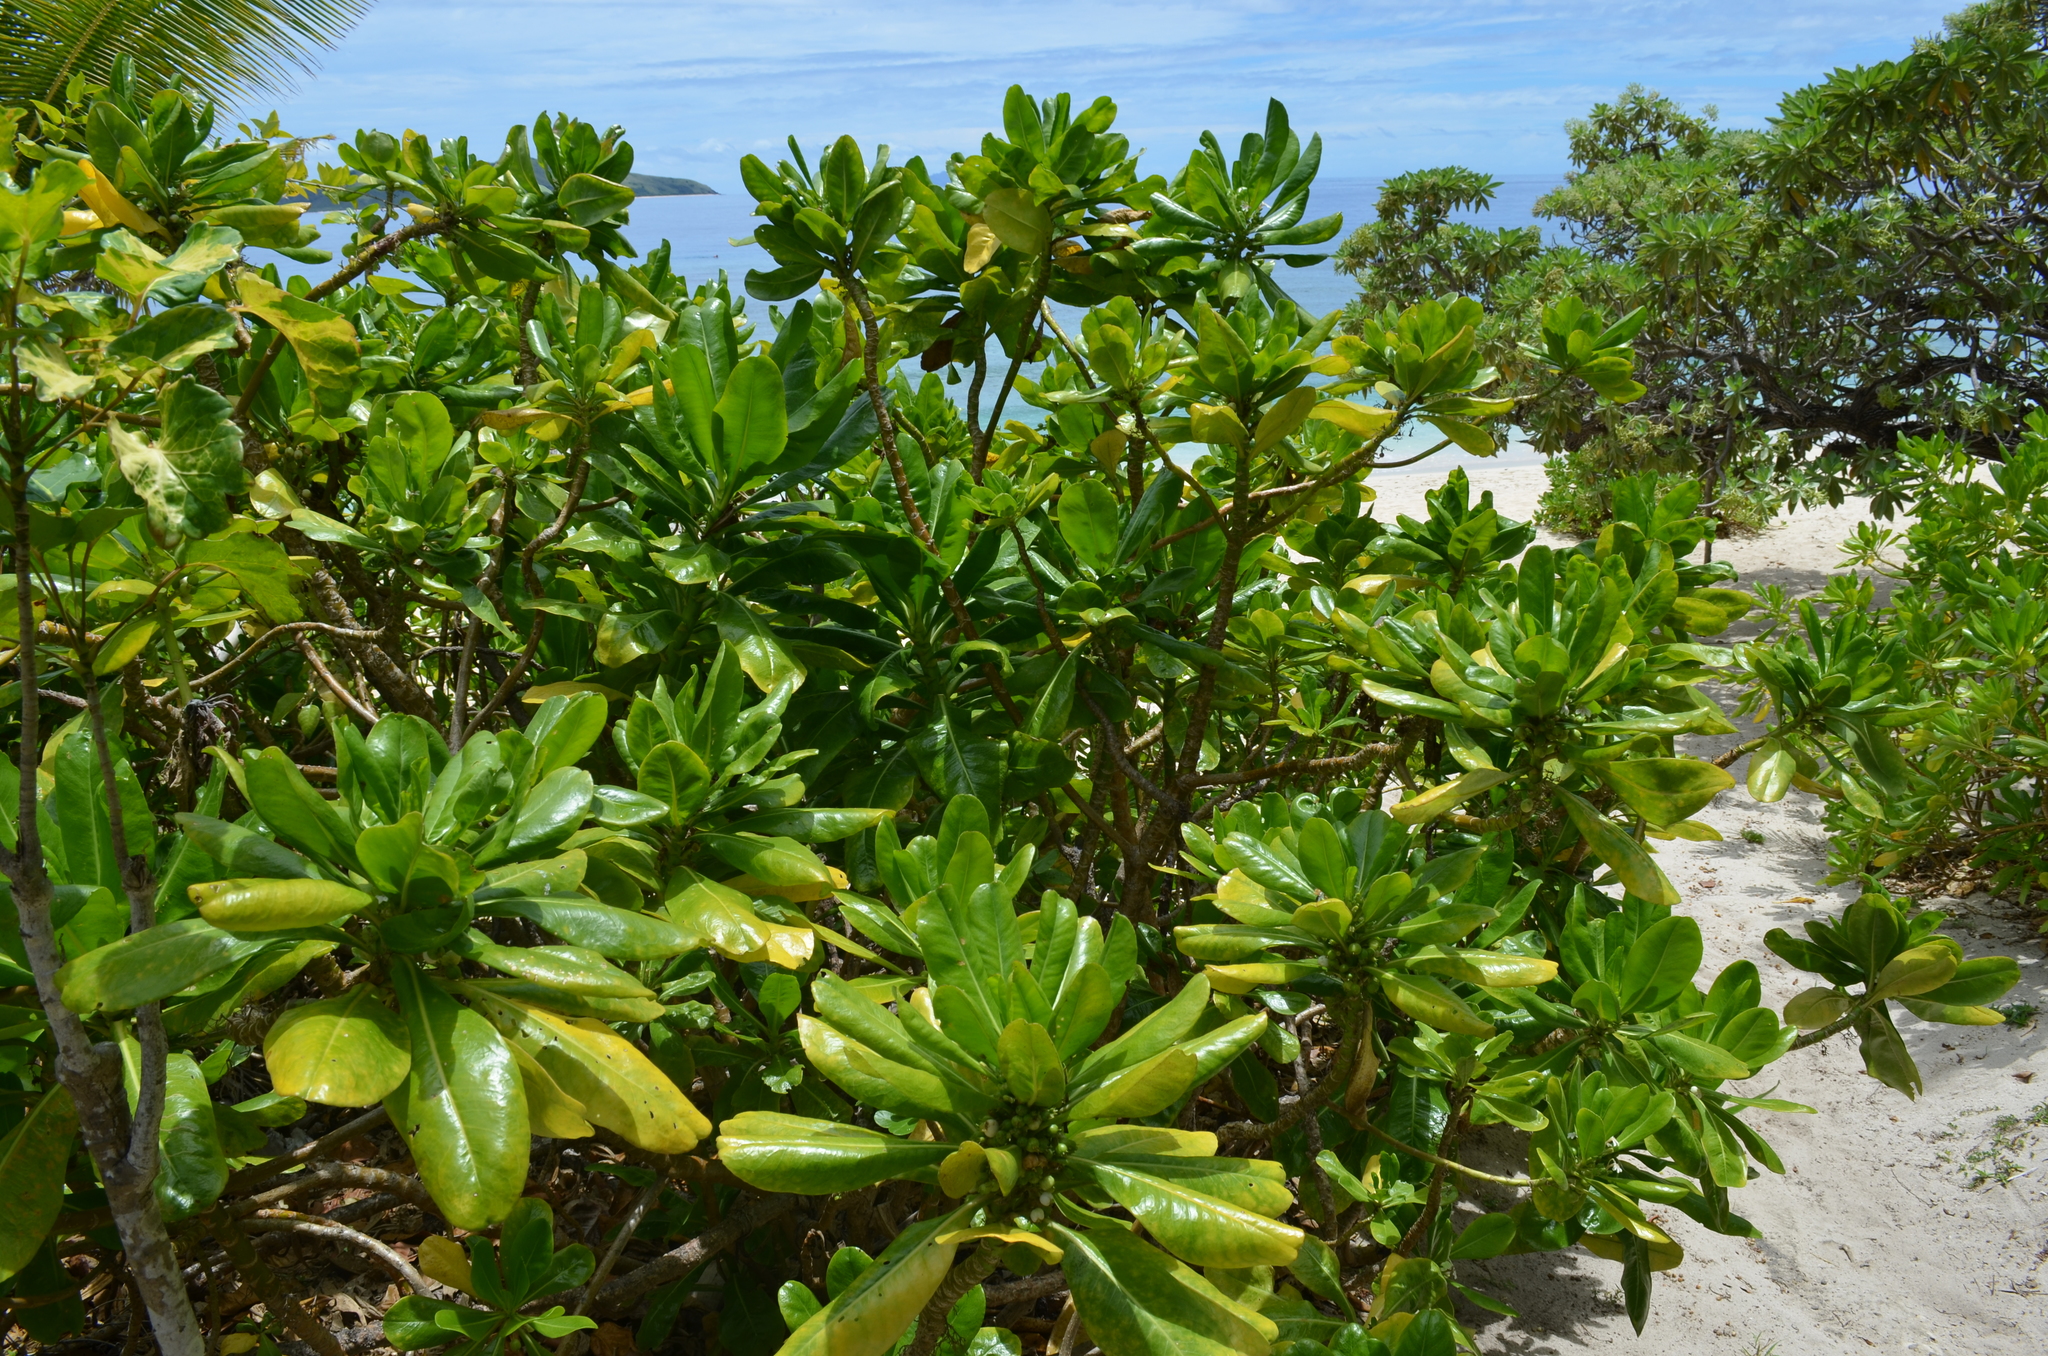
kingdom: Plantae
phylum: Tracheophyta
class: Magnoliopsida
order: Asterales
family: Goodeniaceae
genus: Scaevola
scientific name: Scaevola taccada
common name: Sea lettucetree
